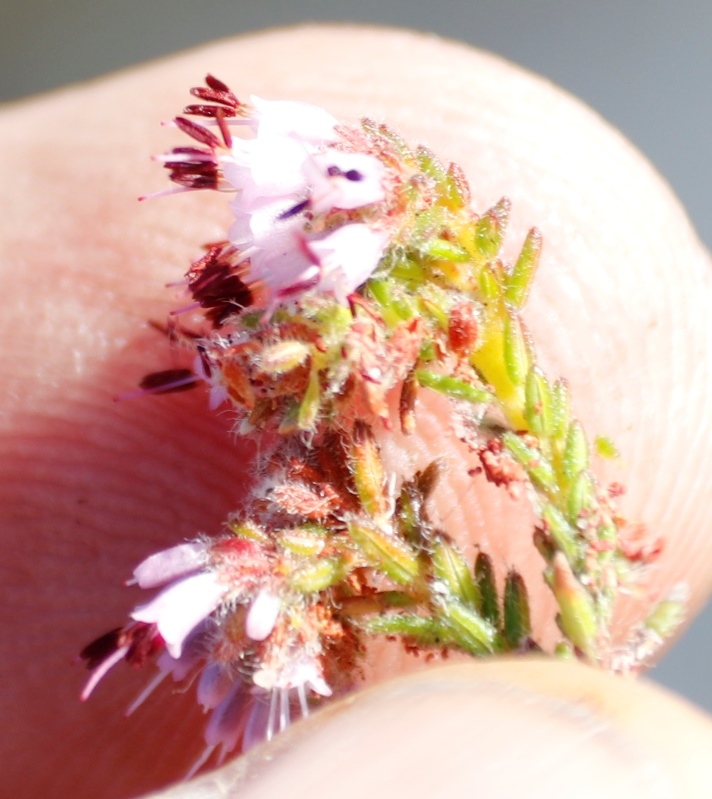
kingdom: Plantae
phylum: Tracheophyta
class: Magnoliopsida
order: Ericales
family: Ericaceae
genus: Erica
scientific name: Erica ericoides
